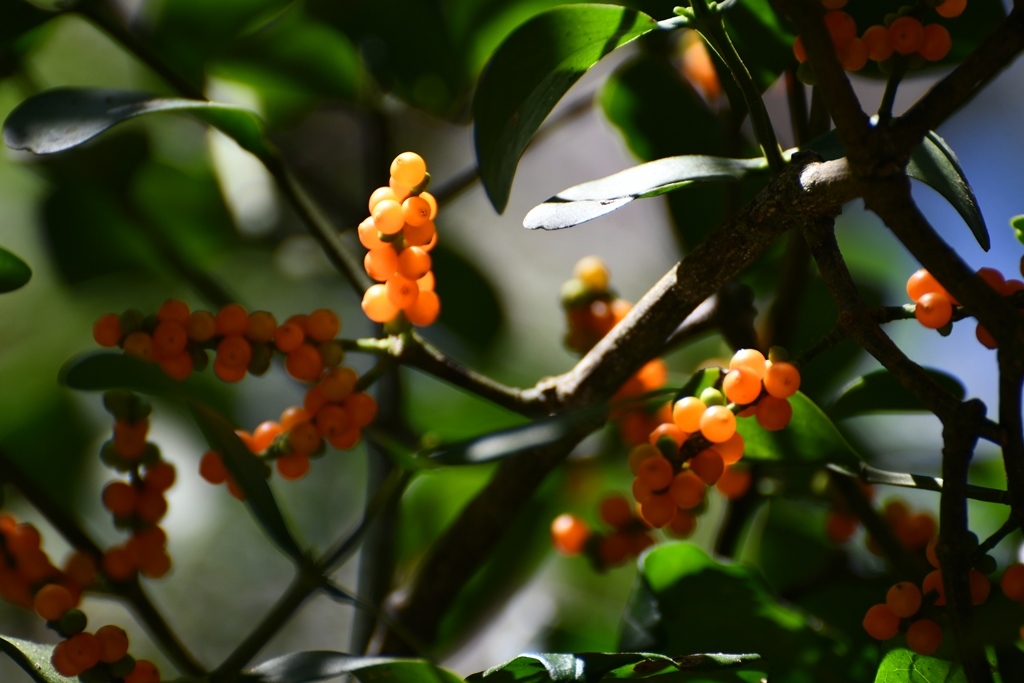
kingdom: Plantae
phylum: Tracheophyta
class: Magnoliopsida
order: Santalales
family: Viscaceae
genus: Phoradendron
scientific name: Phoradendron quadrangulare
